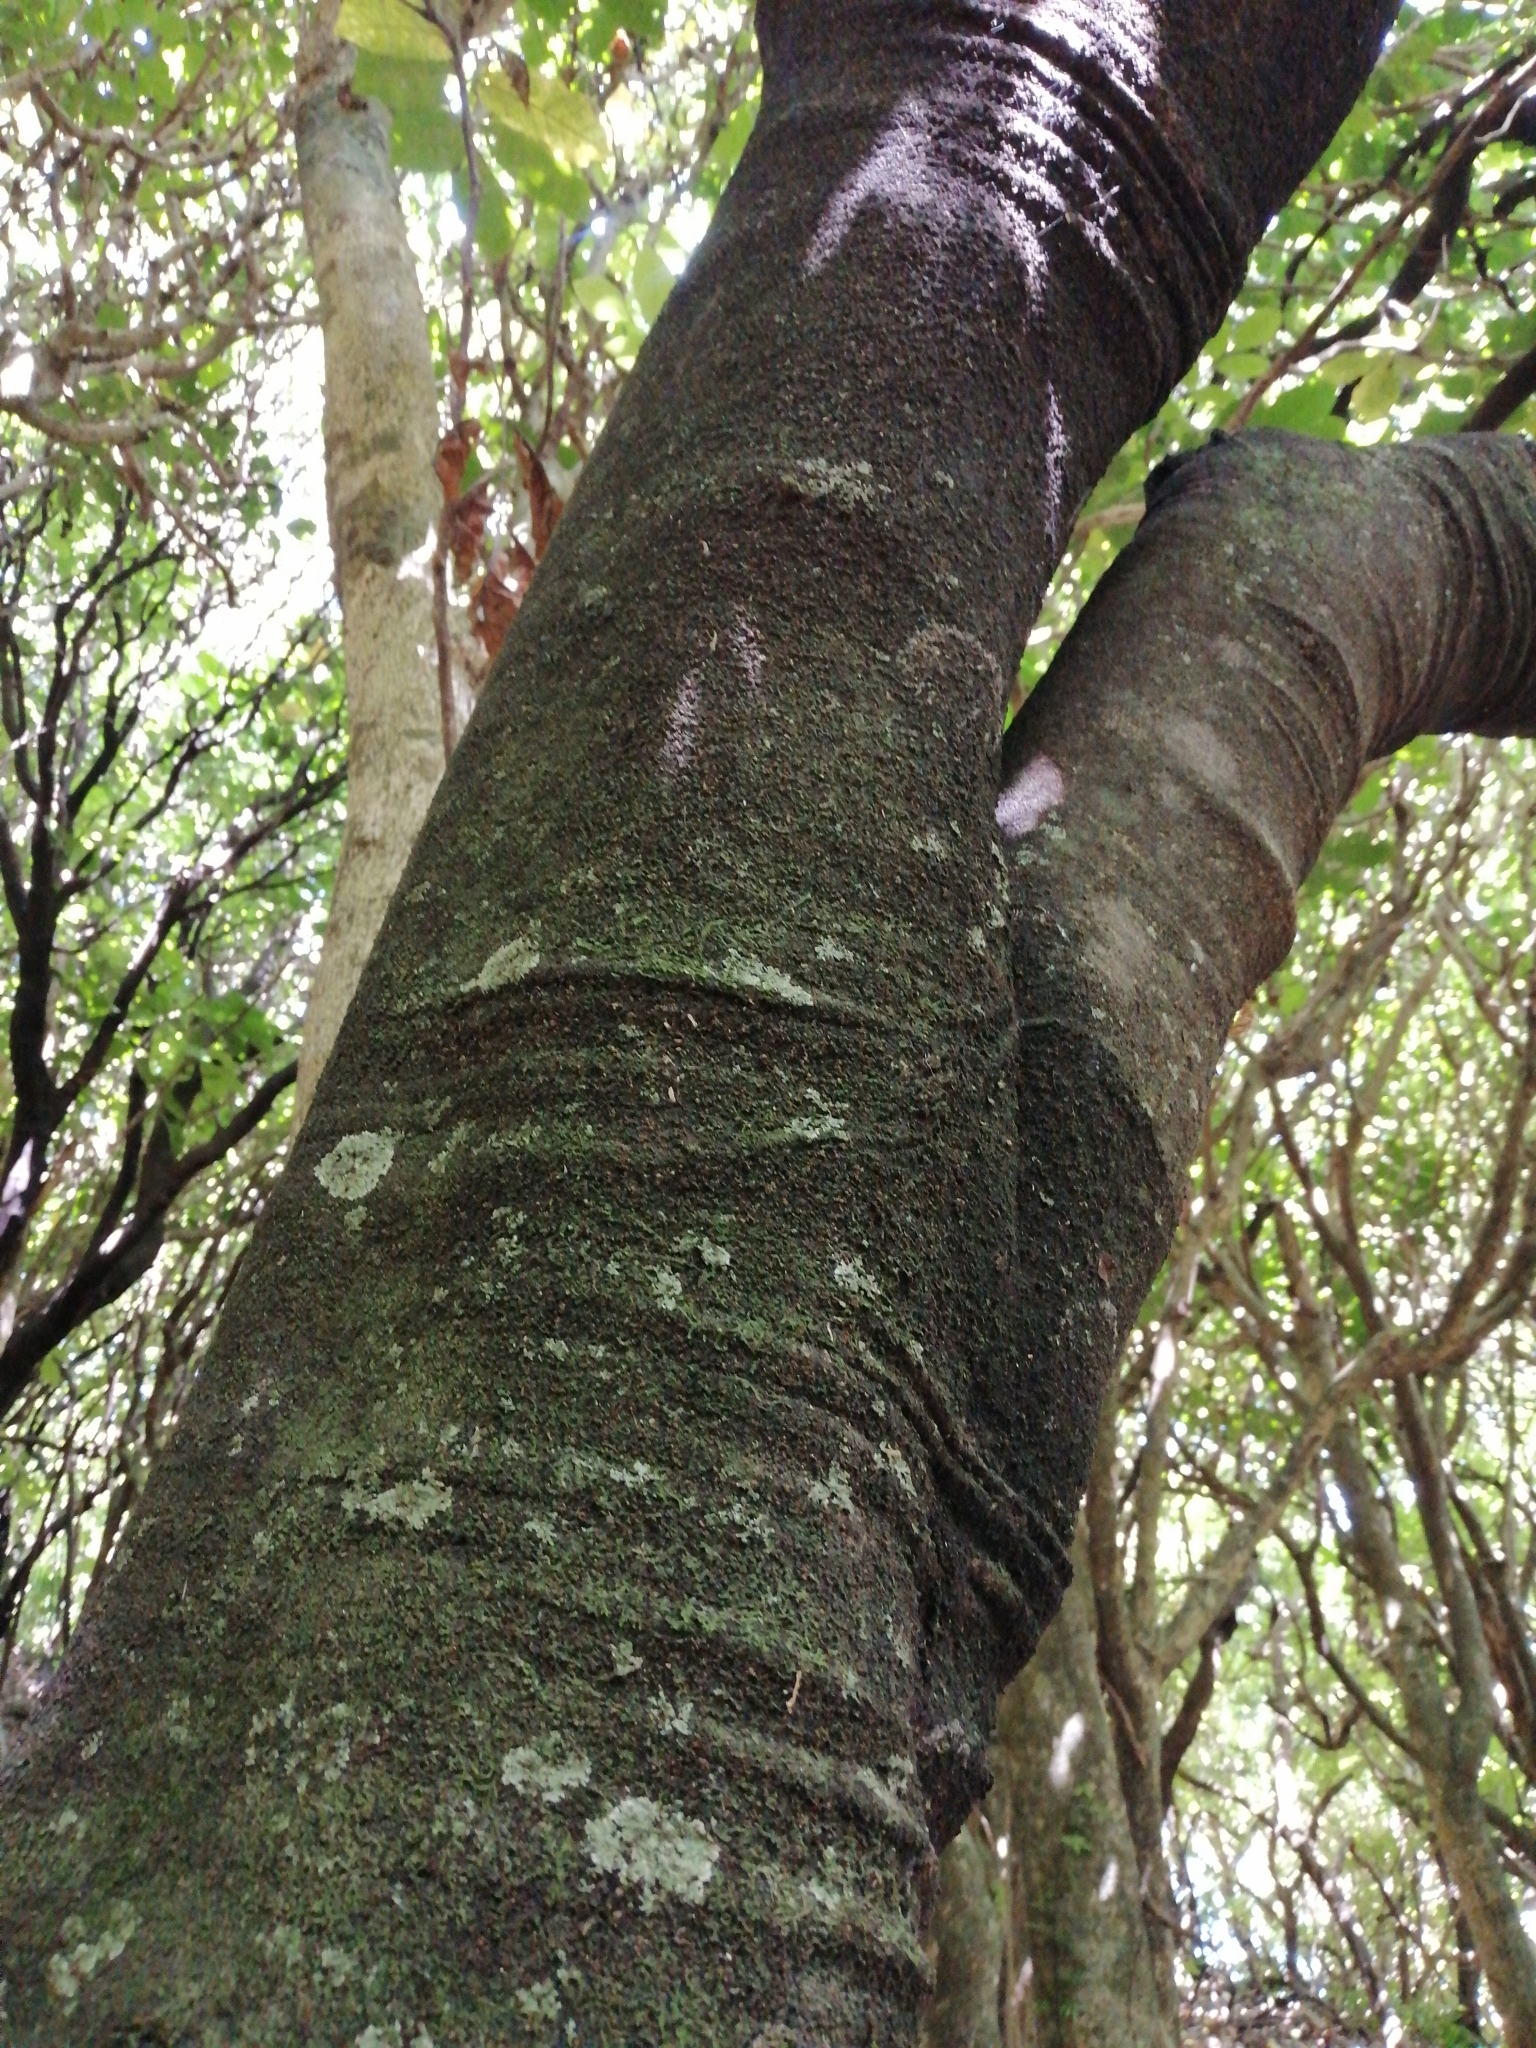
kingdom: Plantae
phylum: Tracheophyta
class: Magnoliopsida
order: Apiales
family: Pittosporaceae
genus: Pittosporum
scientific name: Pittosporum tenuifolium
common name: Kohuhu
